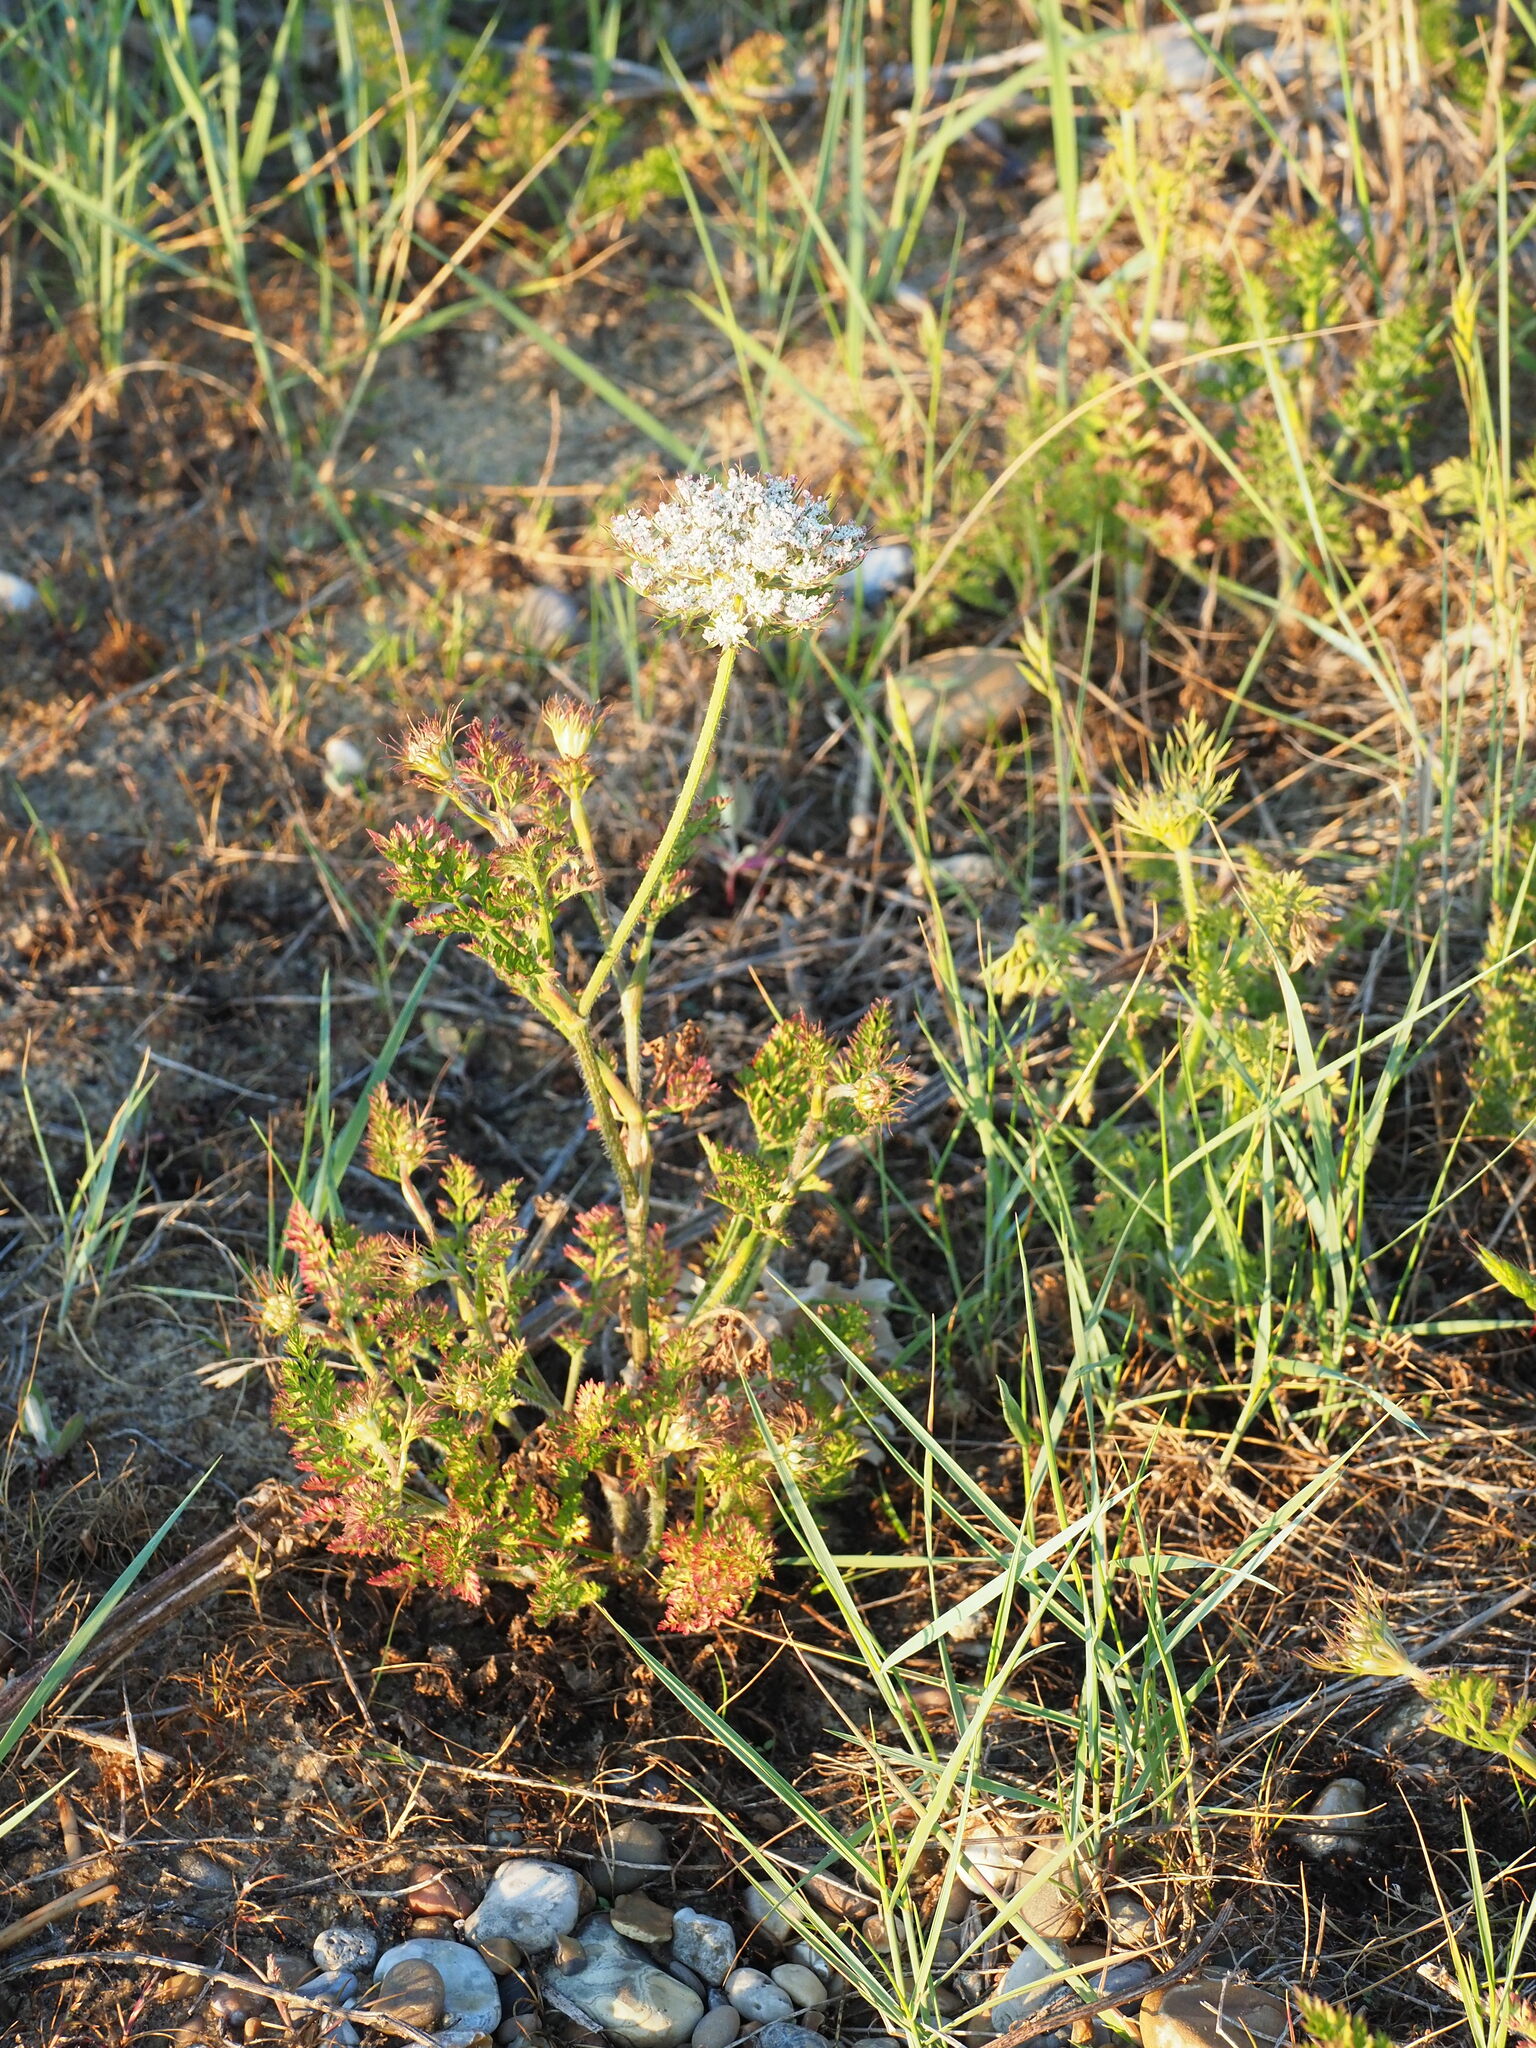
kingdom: Plantae
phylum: Tracheophyta
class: Magnoliopsida
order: Apiales
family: Apiaceae
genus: Daucus
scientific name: Daucus carota
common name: Wild carrot
